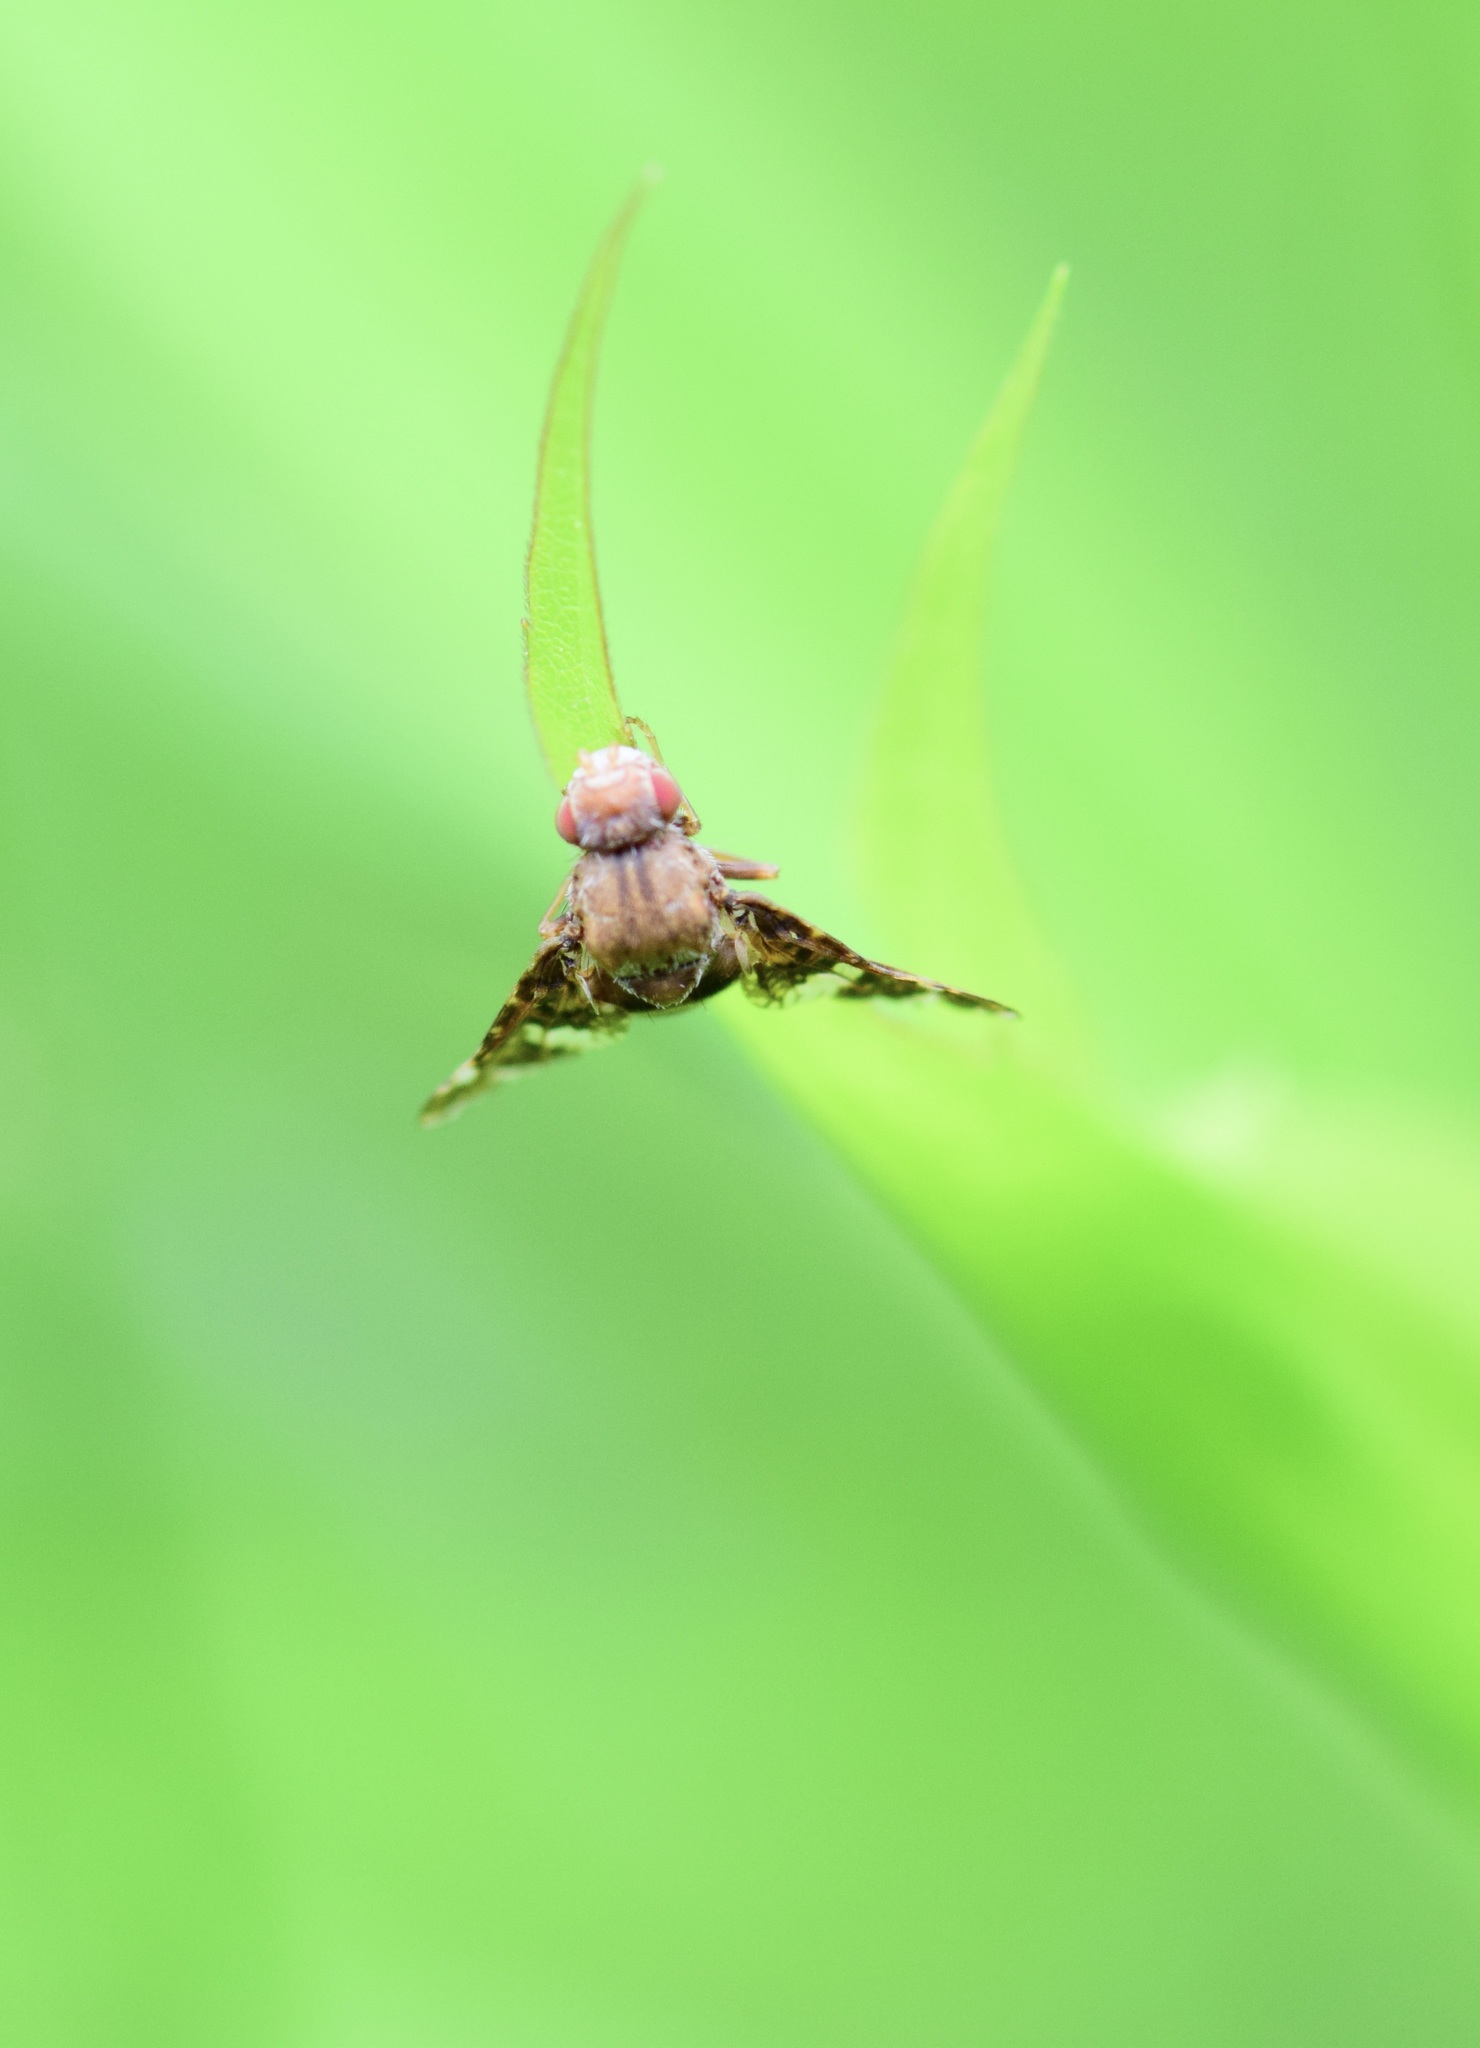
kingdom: Animalia
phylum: Arthropoda
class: Insecta
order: Diptera
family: Tephritidae
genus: Eurosta
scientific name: Eurosta solidaginis
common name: Goldenrod gall fly
